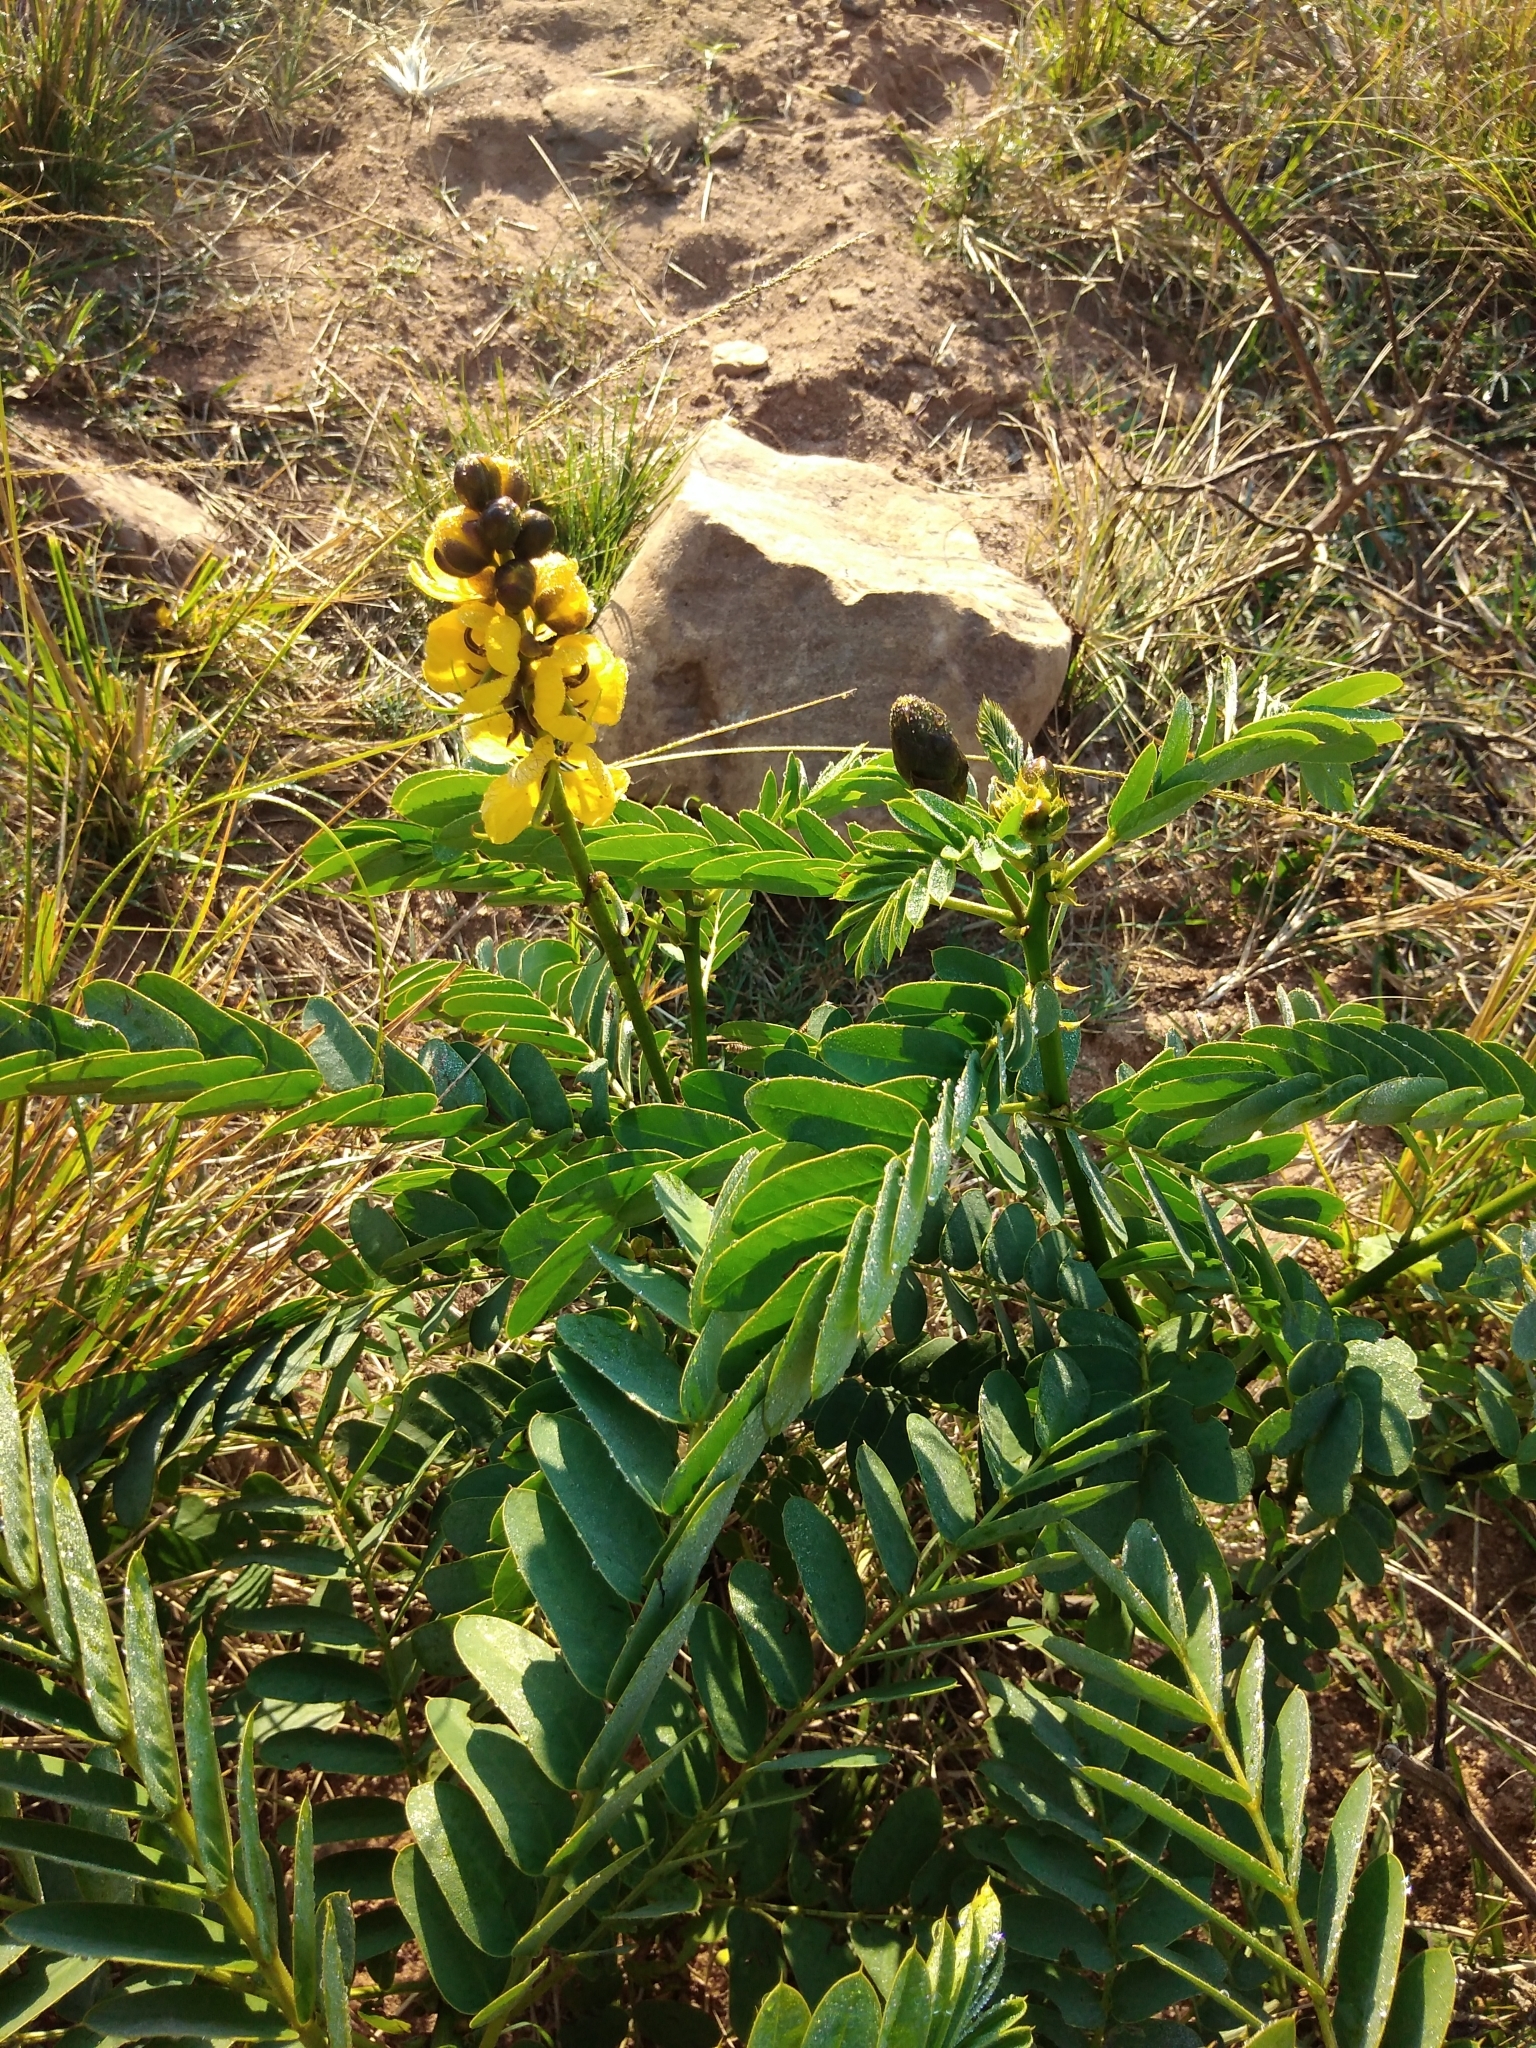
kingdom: Plantae
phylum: Tracheophyta
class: Magnoliopsida
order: Fabales
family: Fabaceae
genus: Senna
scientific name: Senna didymobotrya
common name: African senna
